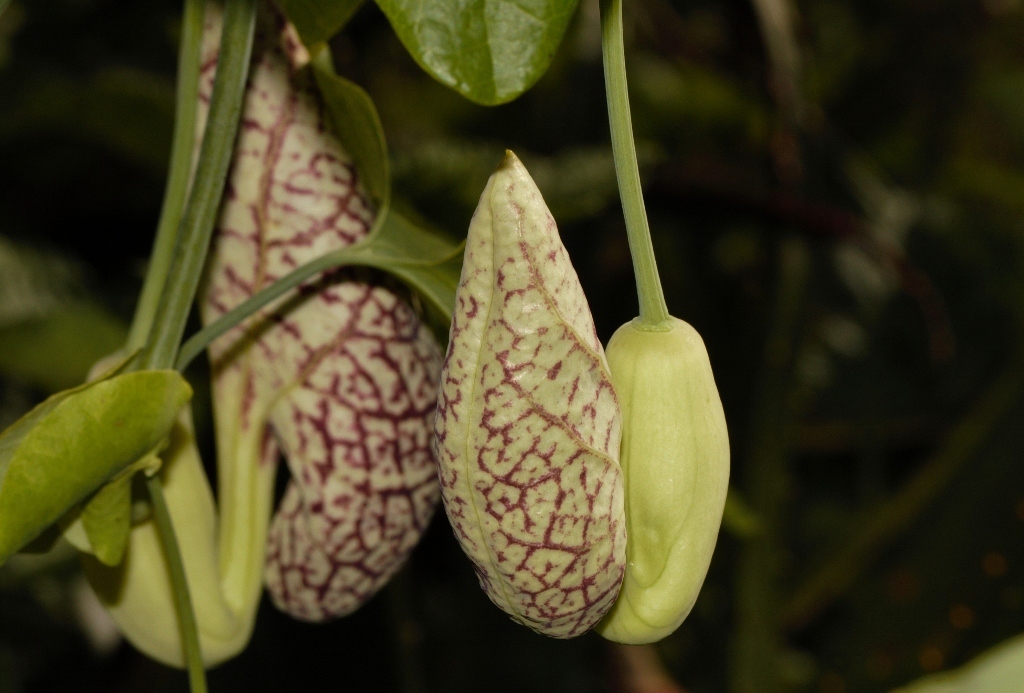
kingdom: Plantae
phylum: Tracheophyta
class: Magnoliopsida
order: Piperales
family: Aristolochiaceae
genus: Aristolochia
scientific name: Aristolochia littoralis
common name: Duck
